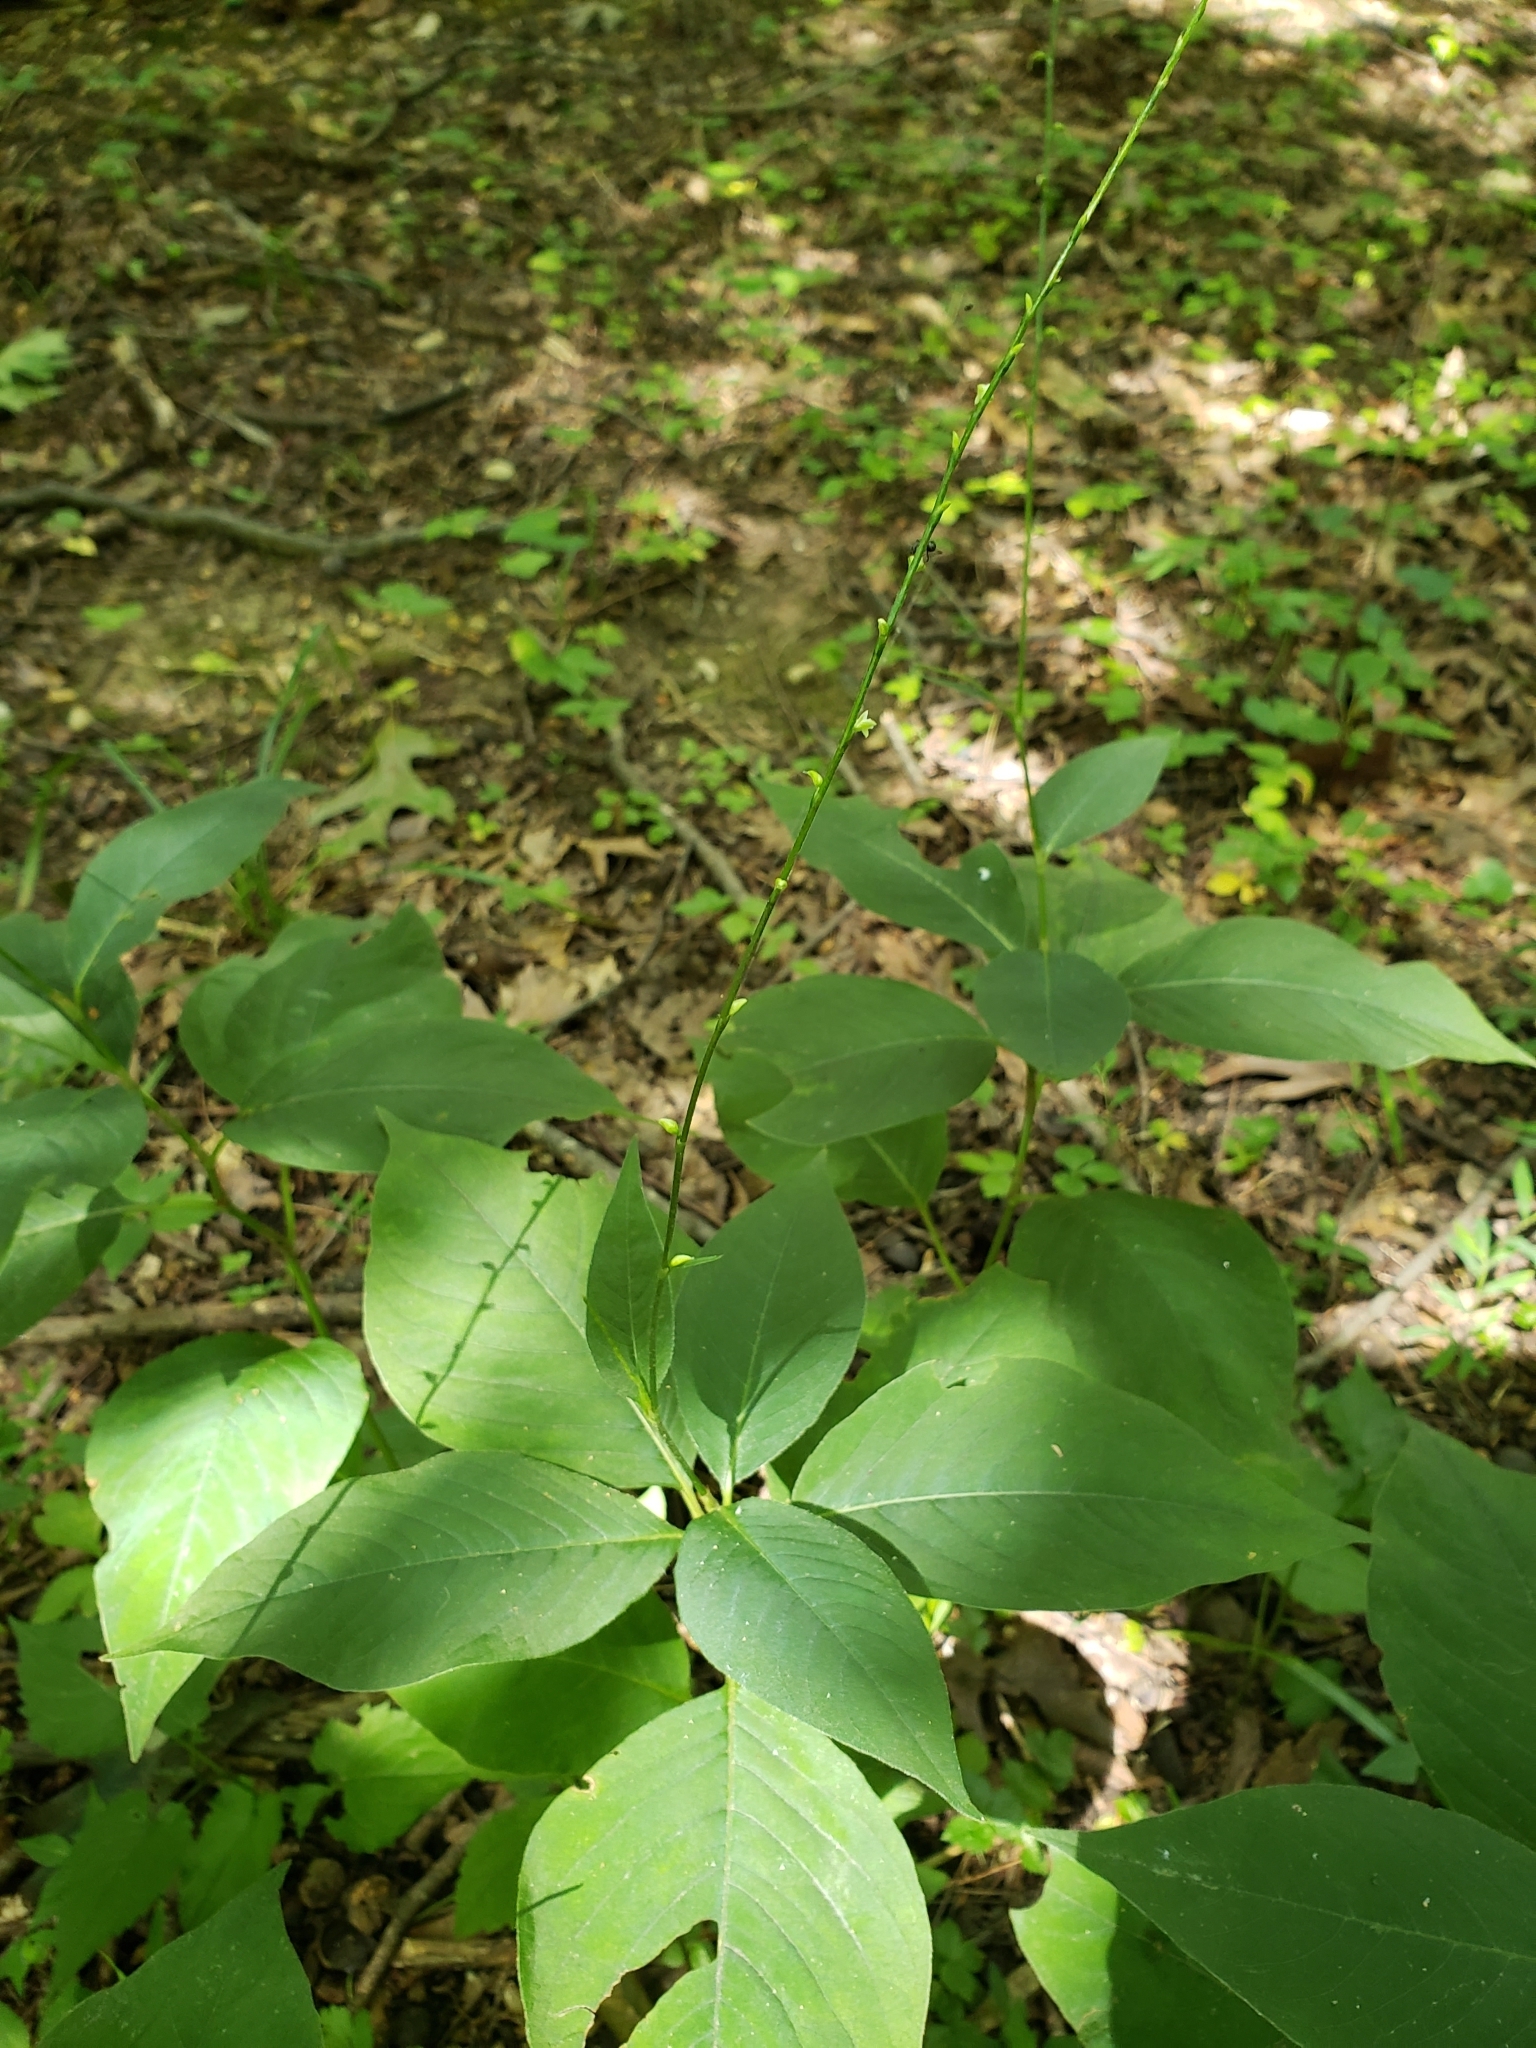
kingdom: Plantae
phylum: Tracheophyta
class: Magnoliopsida
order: Caryophyllales
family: Polygonaceae
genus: Persicaria
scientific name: Persicaria virginiana
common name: Jumpseed
